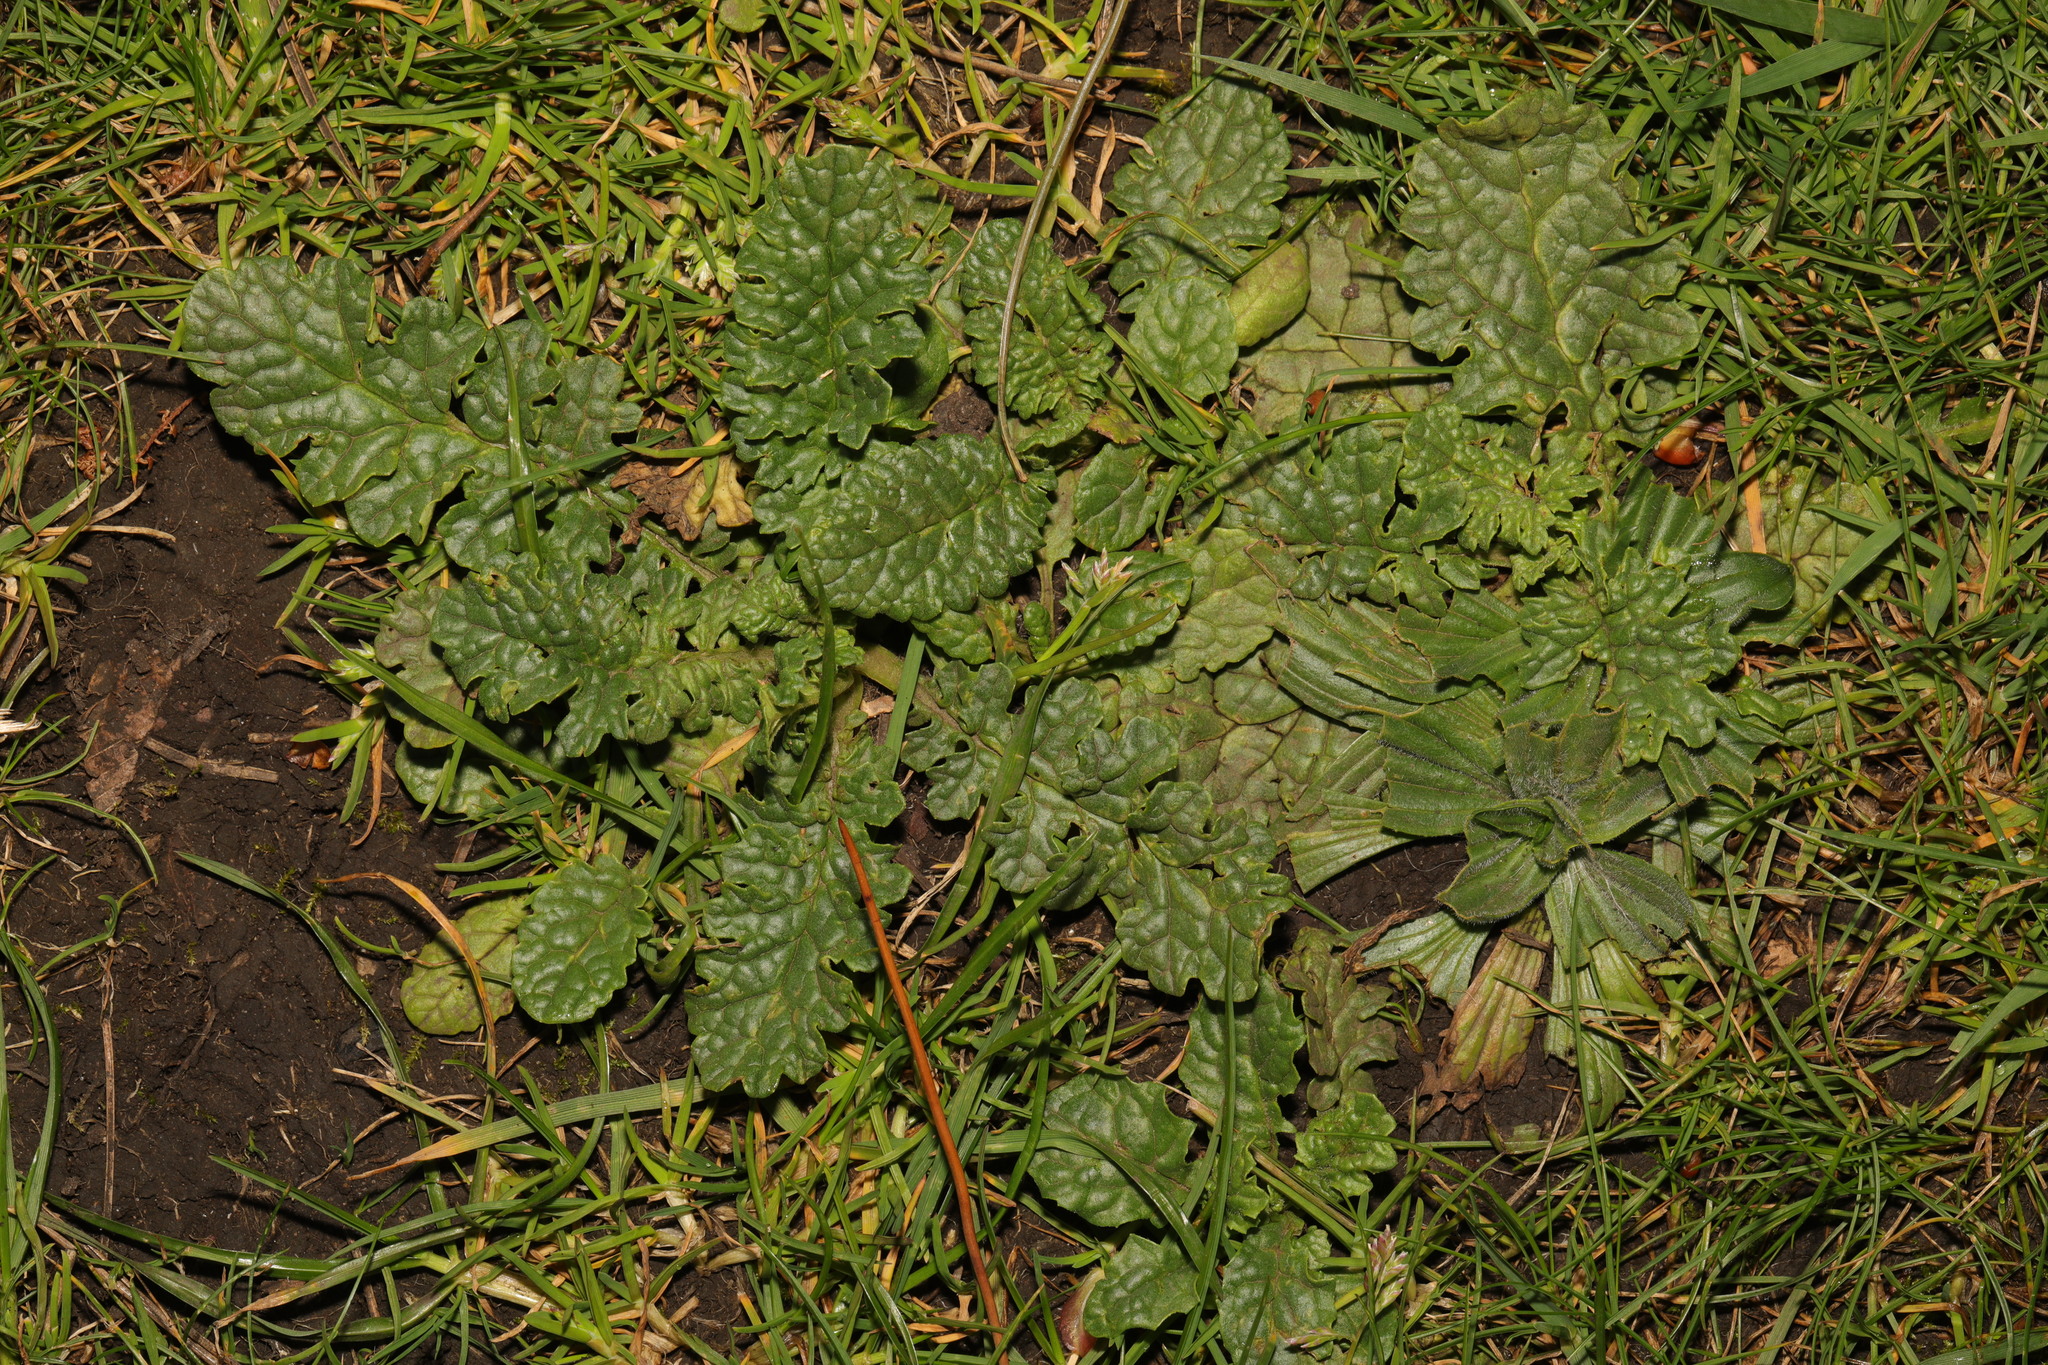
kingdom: Plantae
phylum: Tracheophyta
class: Magnoliopsida
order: Asterales
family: Asteraceae
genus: Jacobaea
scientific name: Jacobaea vulgaris
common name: Stinking willie
